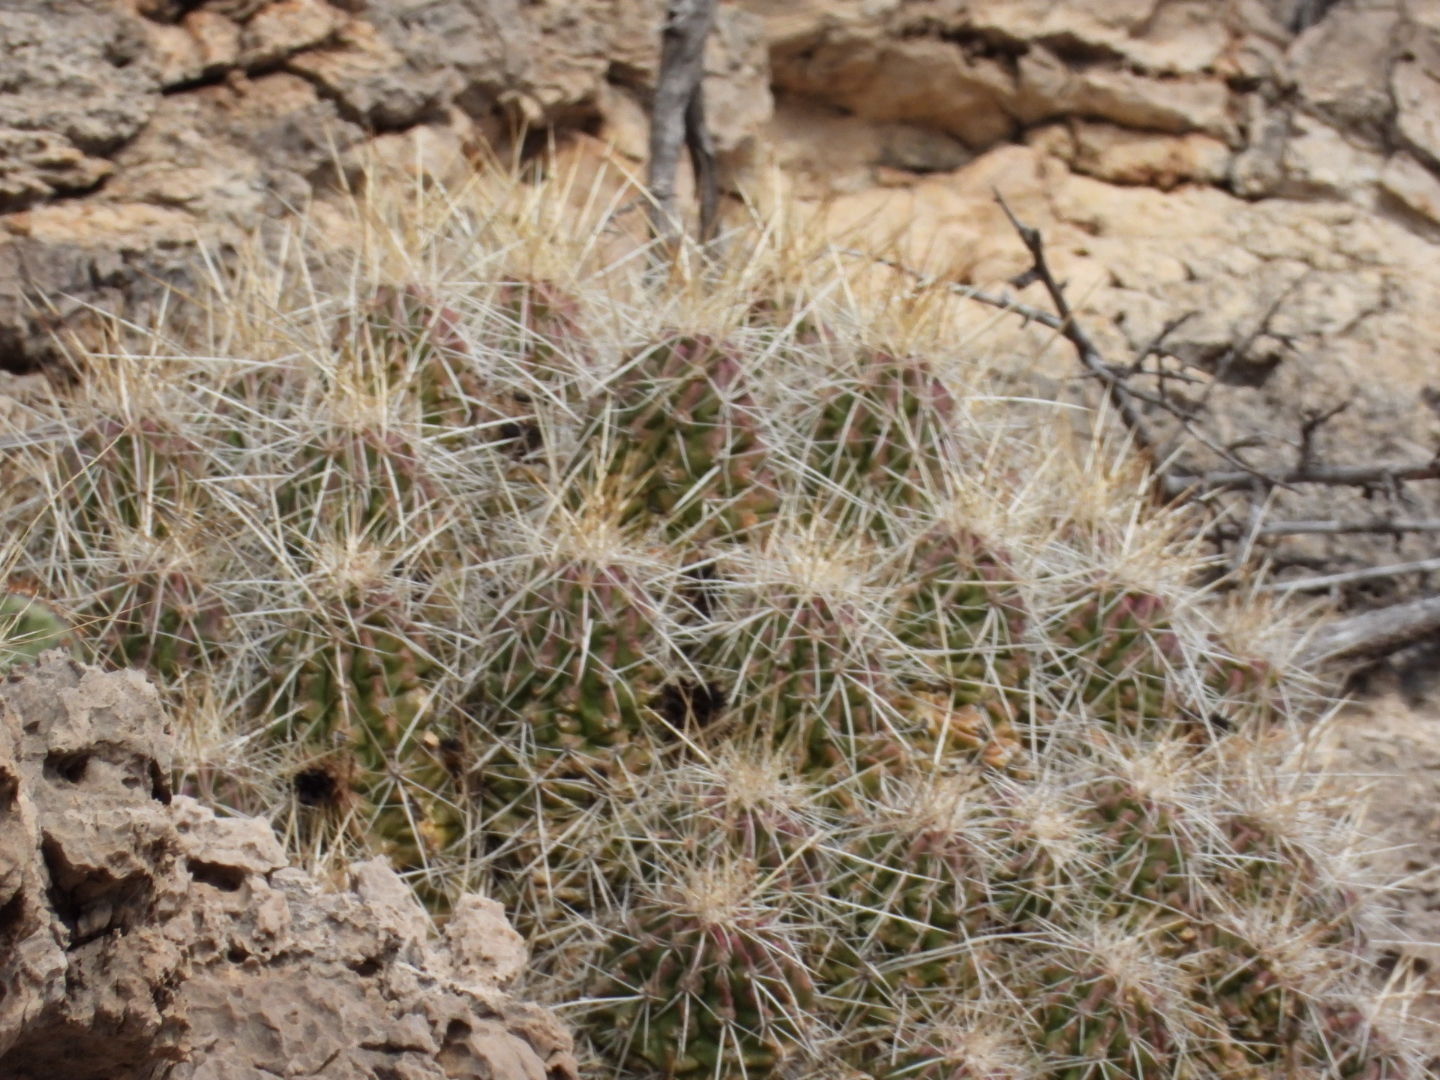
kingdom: Plantae
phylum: Tracheophyta
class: Magnoliopsida
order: Caryophyllales
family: Cactaceae
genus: Echinocereus
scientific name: Echinocereus stramineus
